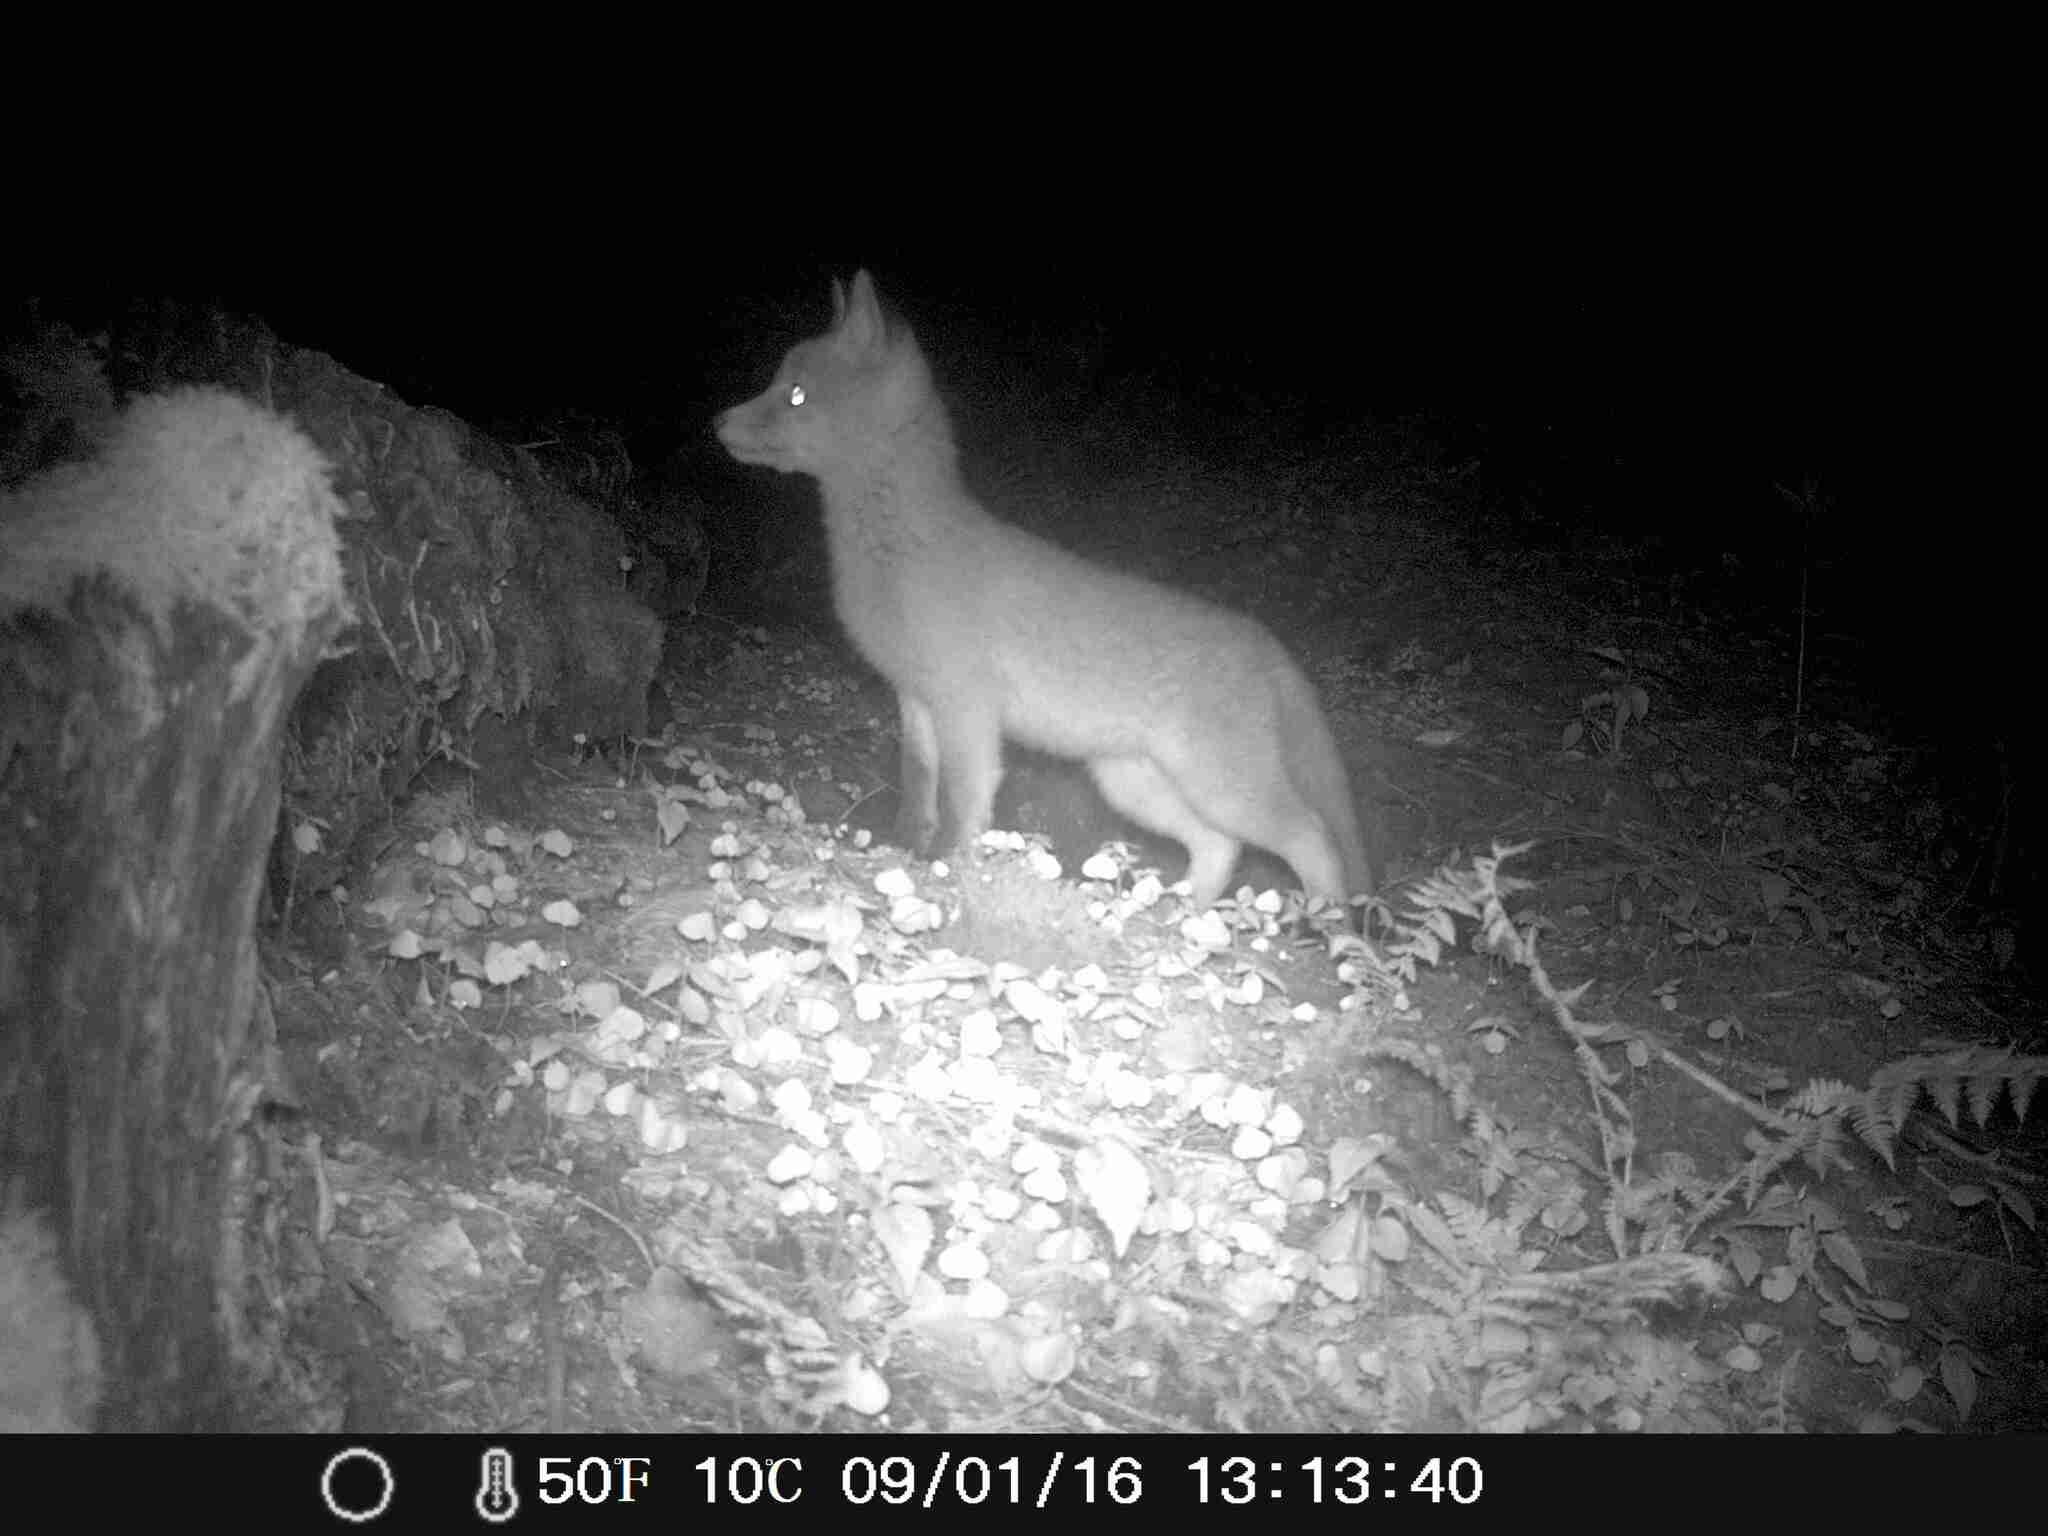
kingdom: Animalia
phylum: Chordata
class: Mammalia
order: Carnivora
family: Canidae
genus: Vulpes
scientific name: Vulpes vulpes
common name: Red fox
